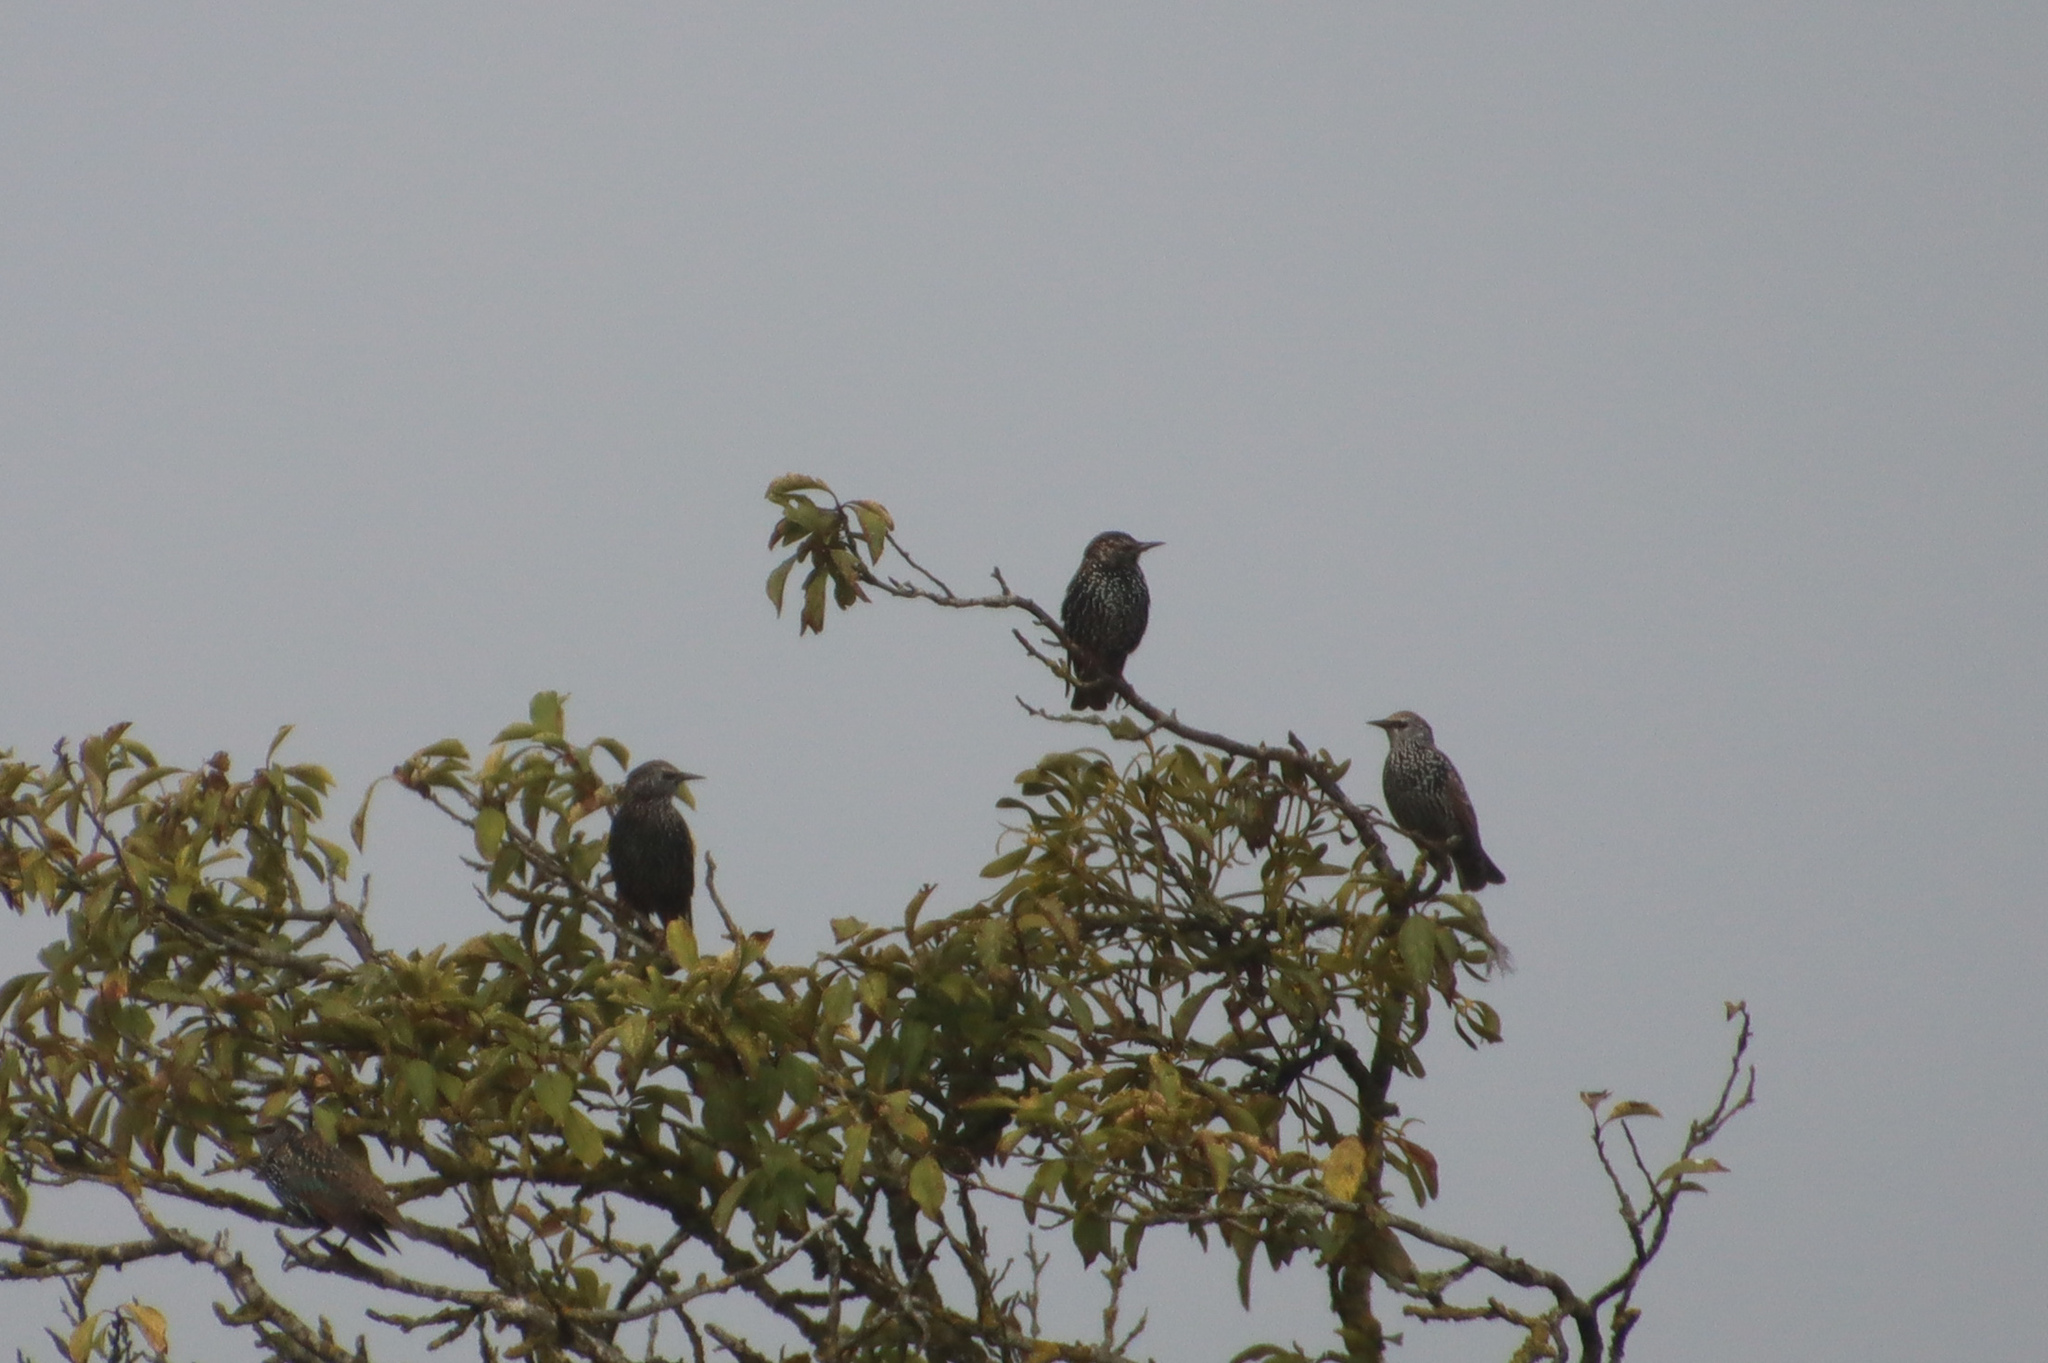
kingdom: Animalia
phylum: Chordata
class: Aves
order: Passeriformes
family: Sturnidae
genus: Sturnus
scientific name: Sturnus vulgaris
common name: Common starling
